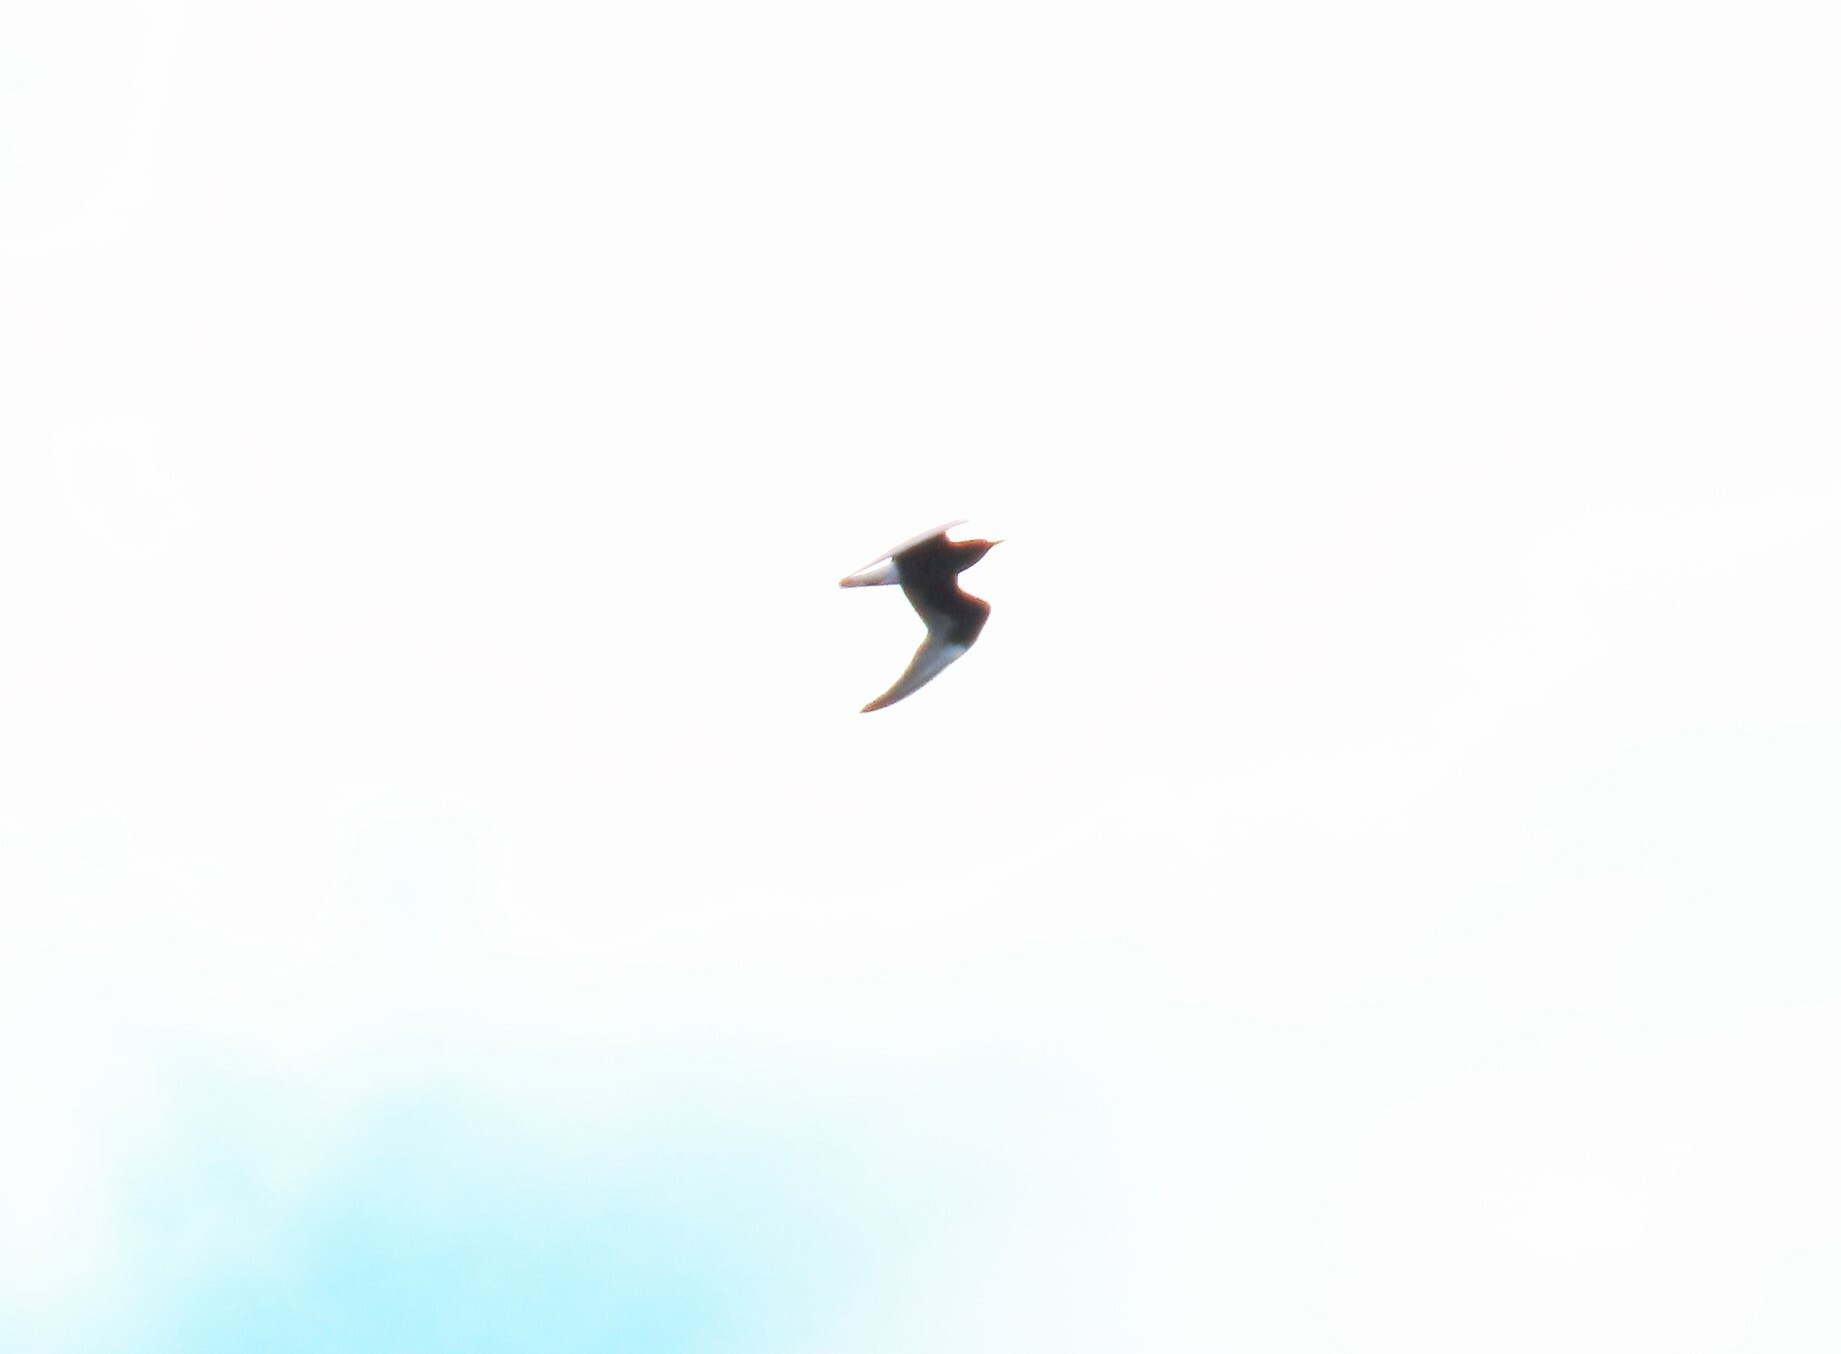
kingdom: Animalia
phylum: Chordata
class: Aves
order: Charadriiformes
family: Laridae
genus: Chlidonias
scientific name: Chlidonias leucopterus
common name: White-winged tern
